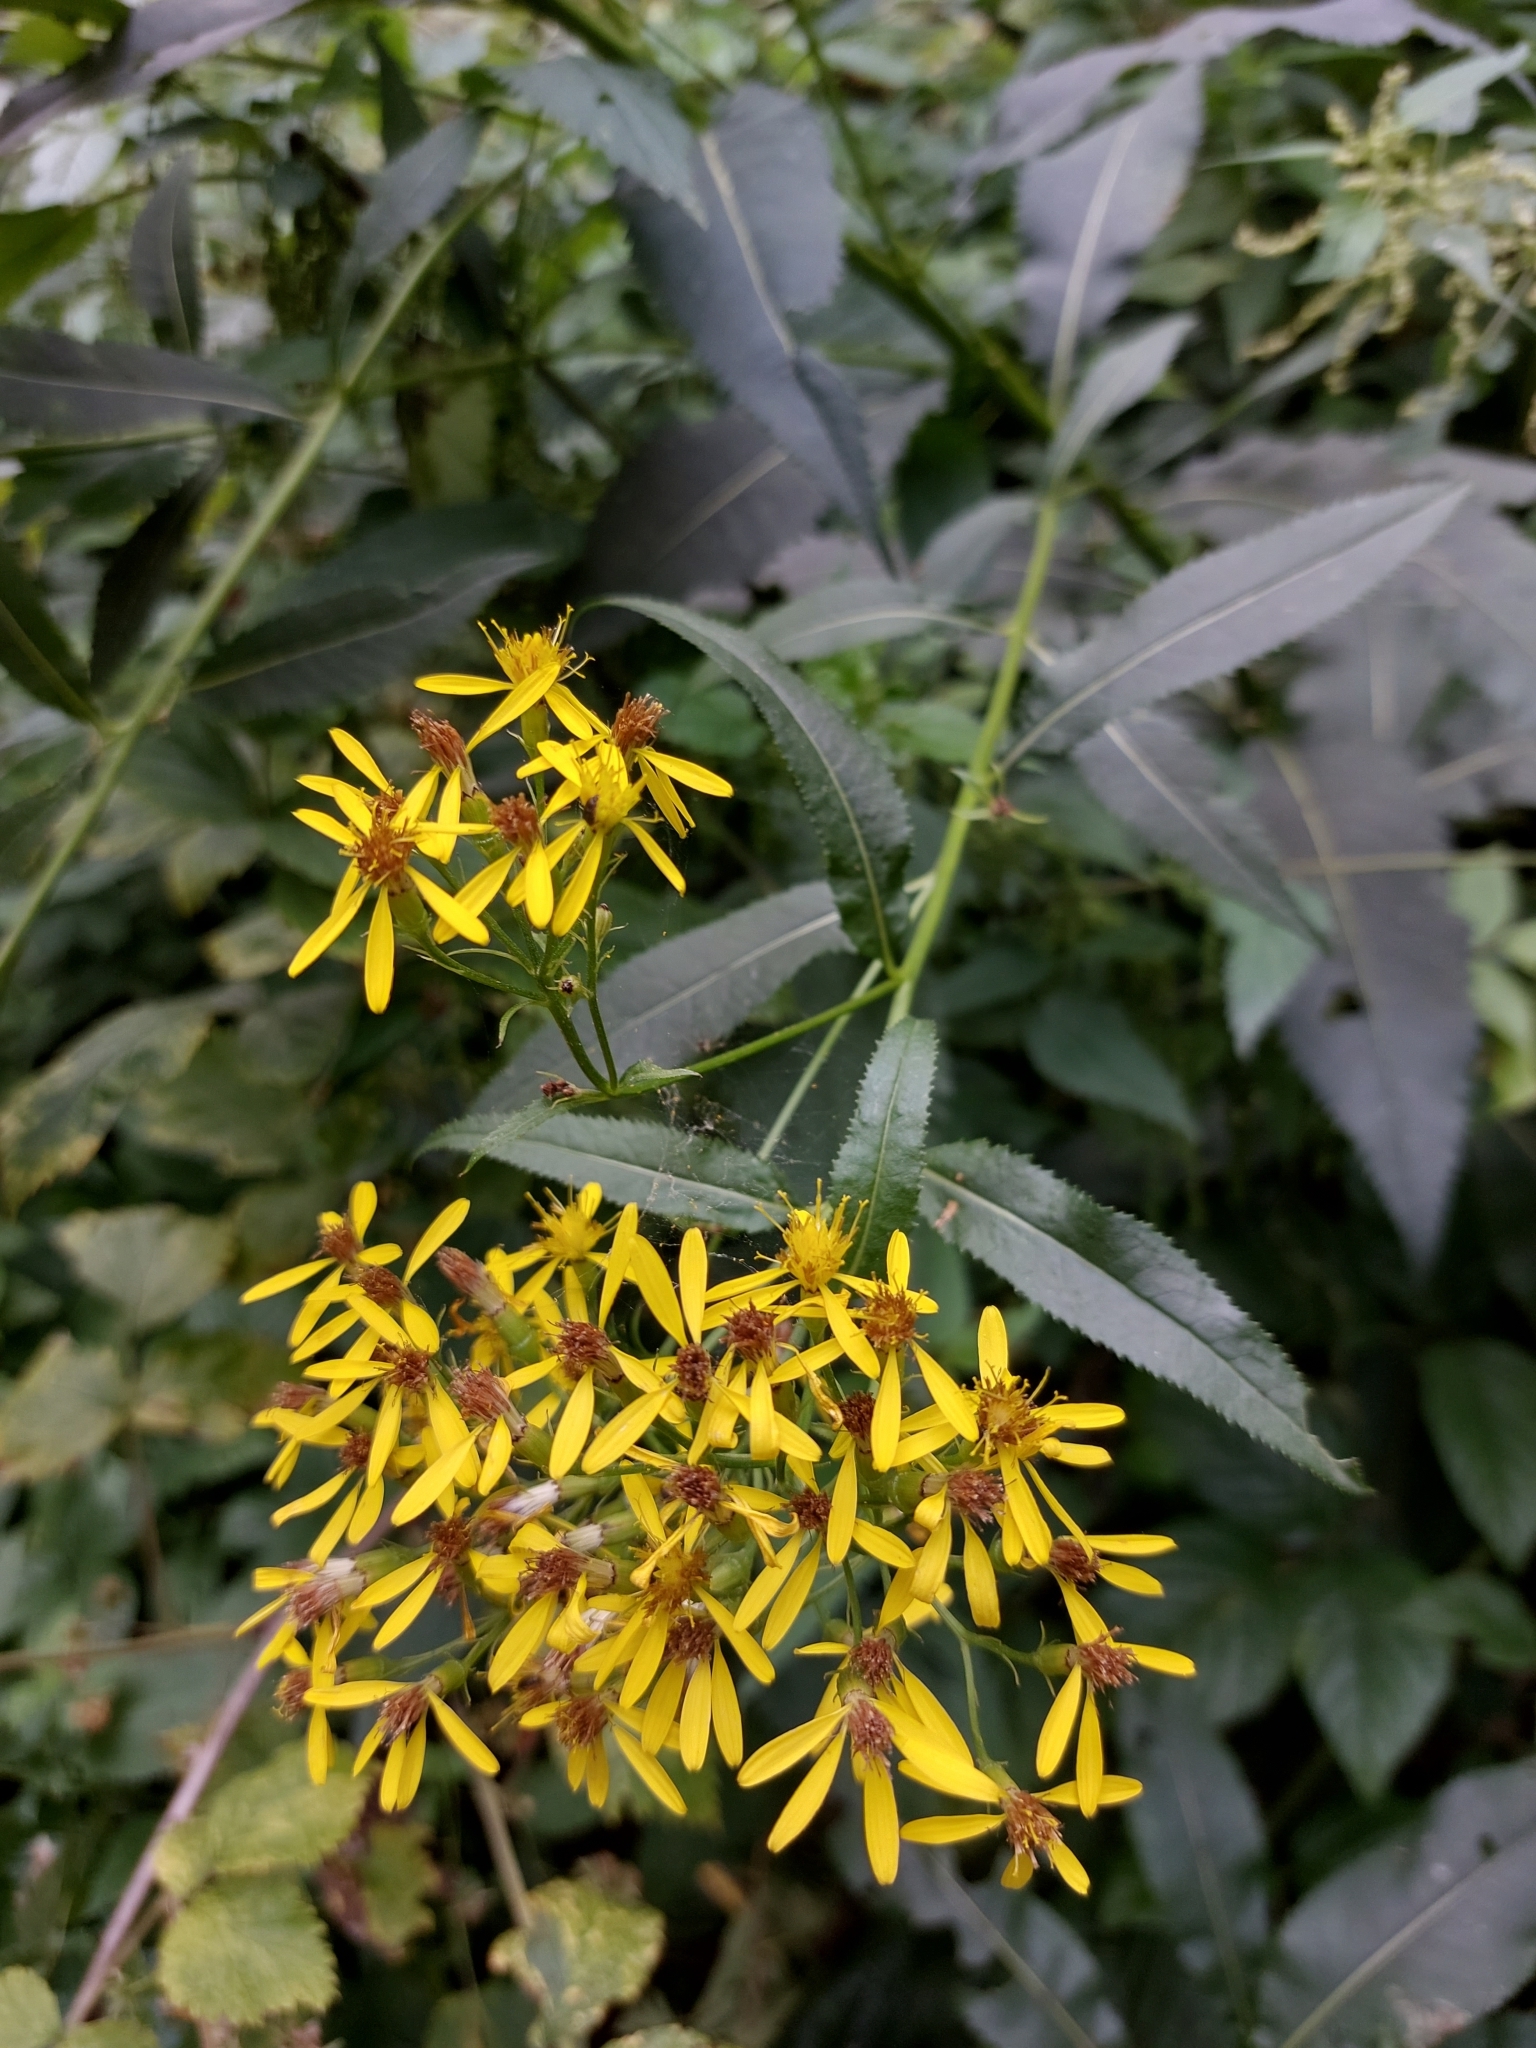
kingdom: Plantae
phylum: Tracheophyta
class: Magnoliopsida
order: Asterales
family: Asteraceae
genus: Senecio
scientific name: Senecio ovatus
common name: Wood ragwort
